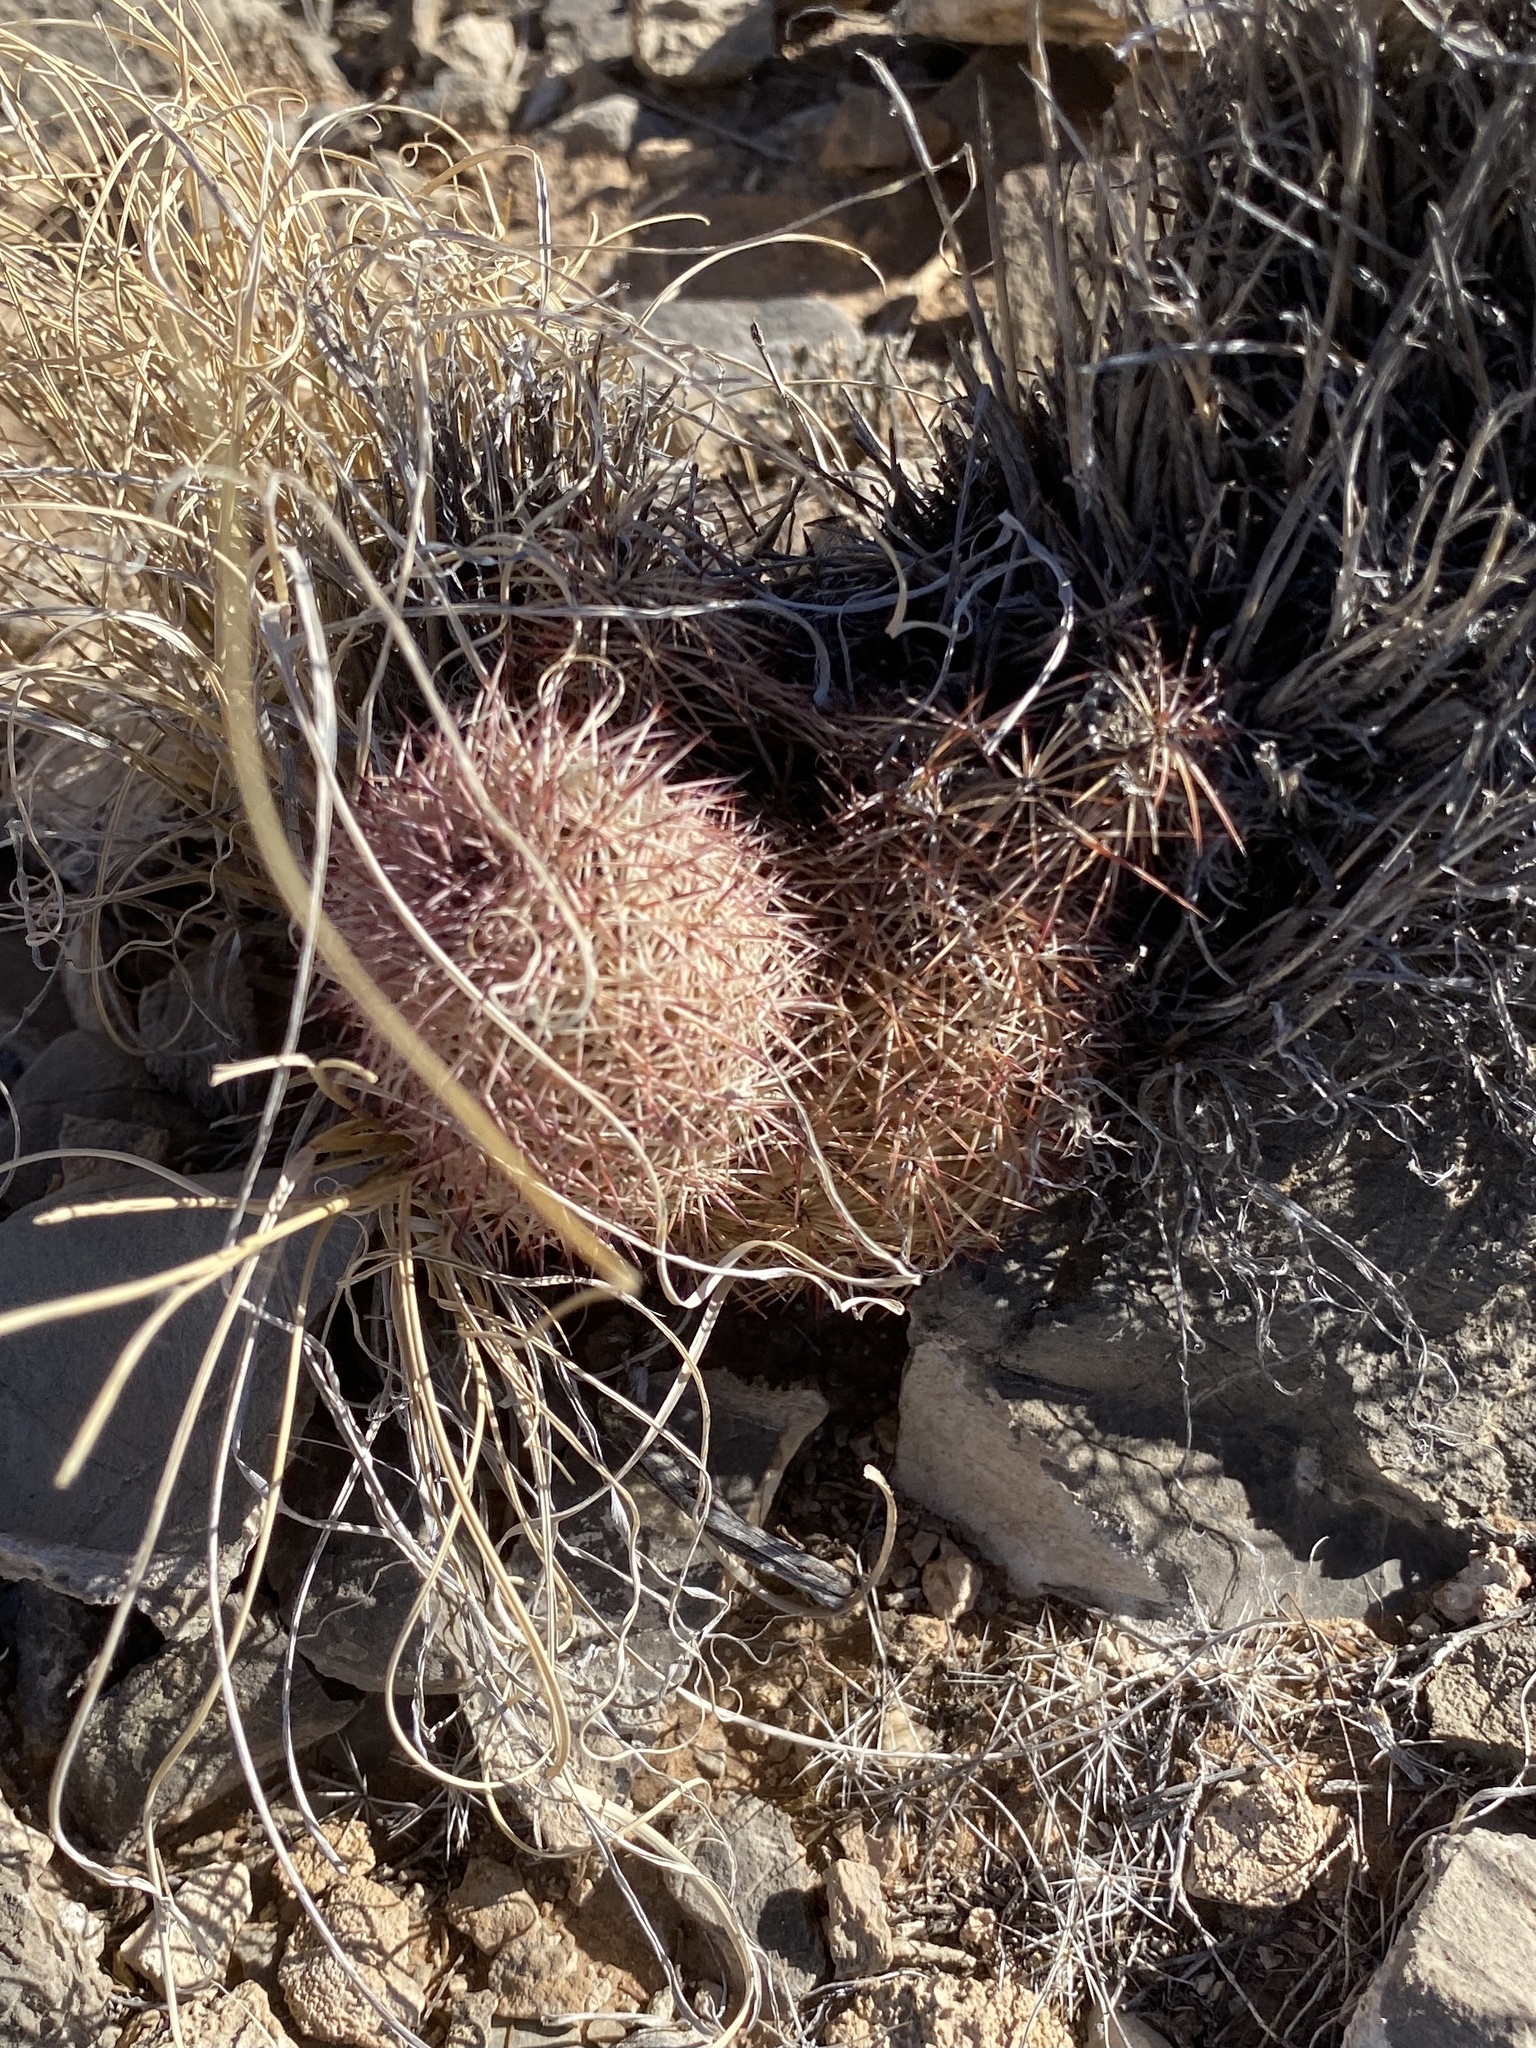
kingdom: Plantae
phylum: Tracheophyta
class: Magnoliopsida
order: Caryophyllales
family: Cactaceae
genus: Echinocereus
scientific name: Echinocereus dasyacanthus
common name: Spiny hedgehog cactus
